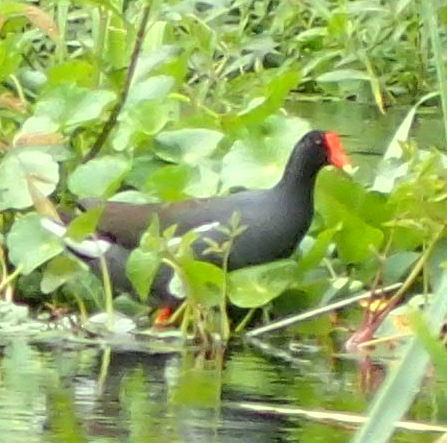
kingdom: Animalia
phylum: Chordata
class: Aves
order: Gruiformes
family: Rallidae
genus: Gallinula
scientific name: Gallinula chloropus
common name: Common moorhen
